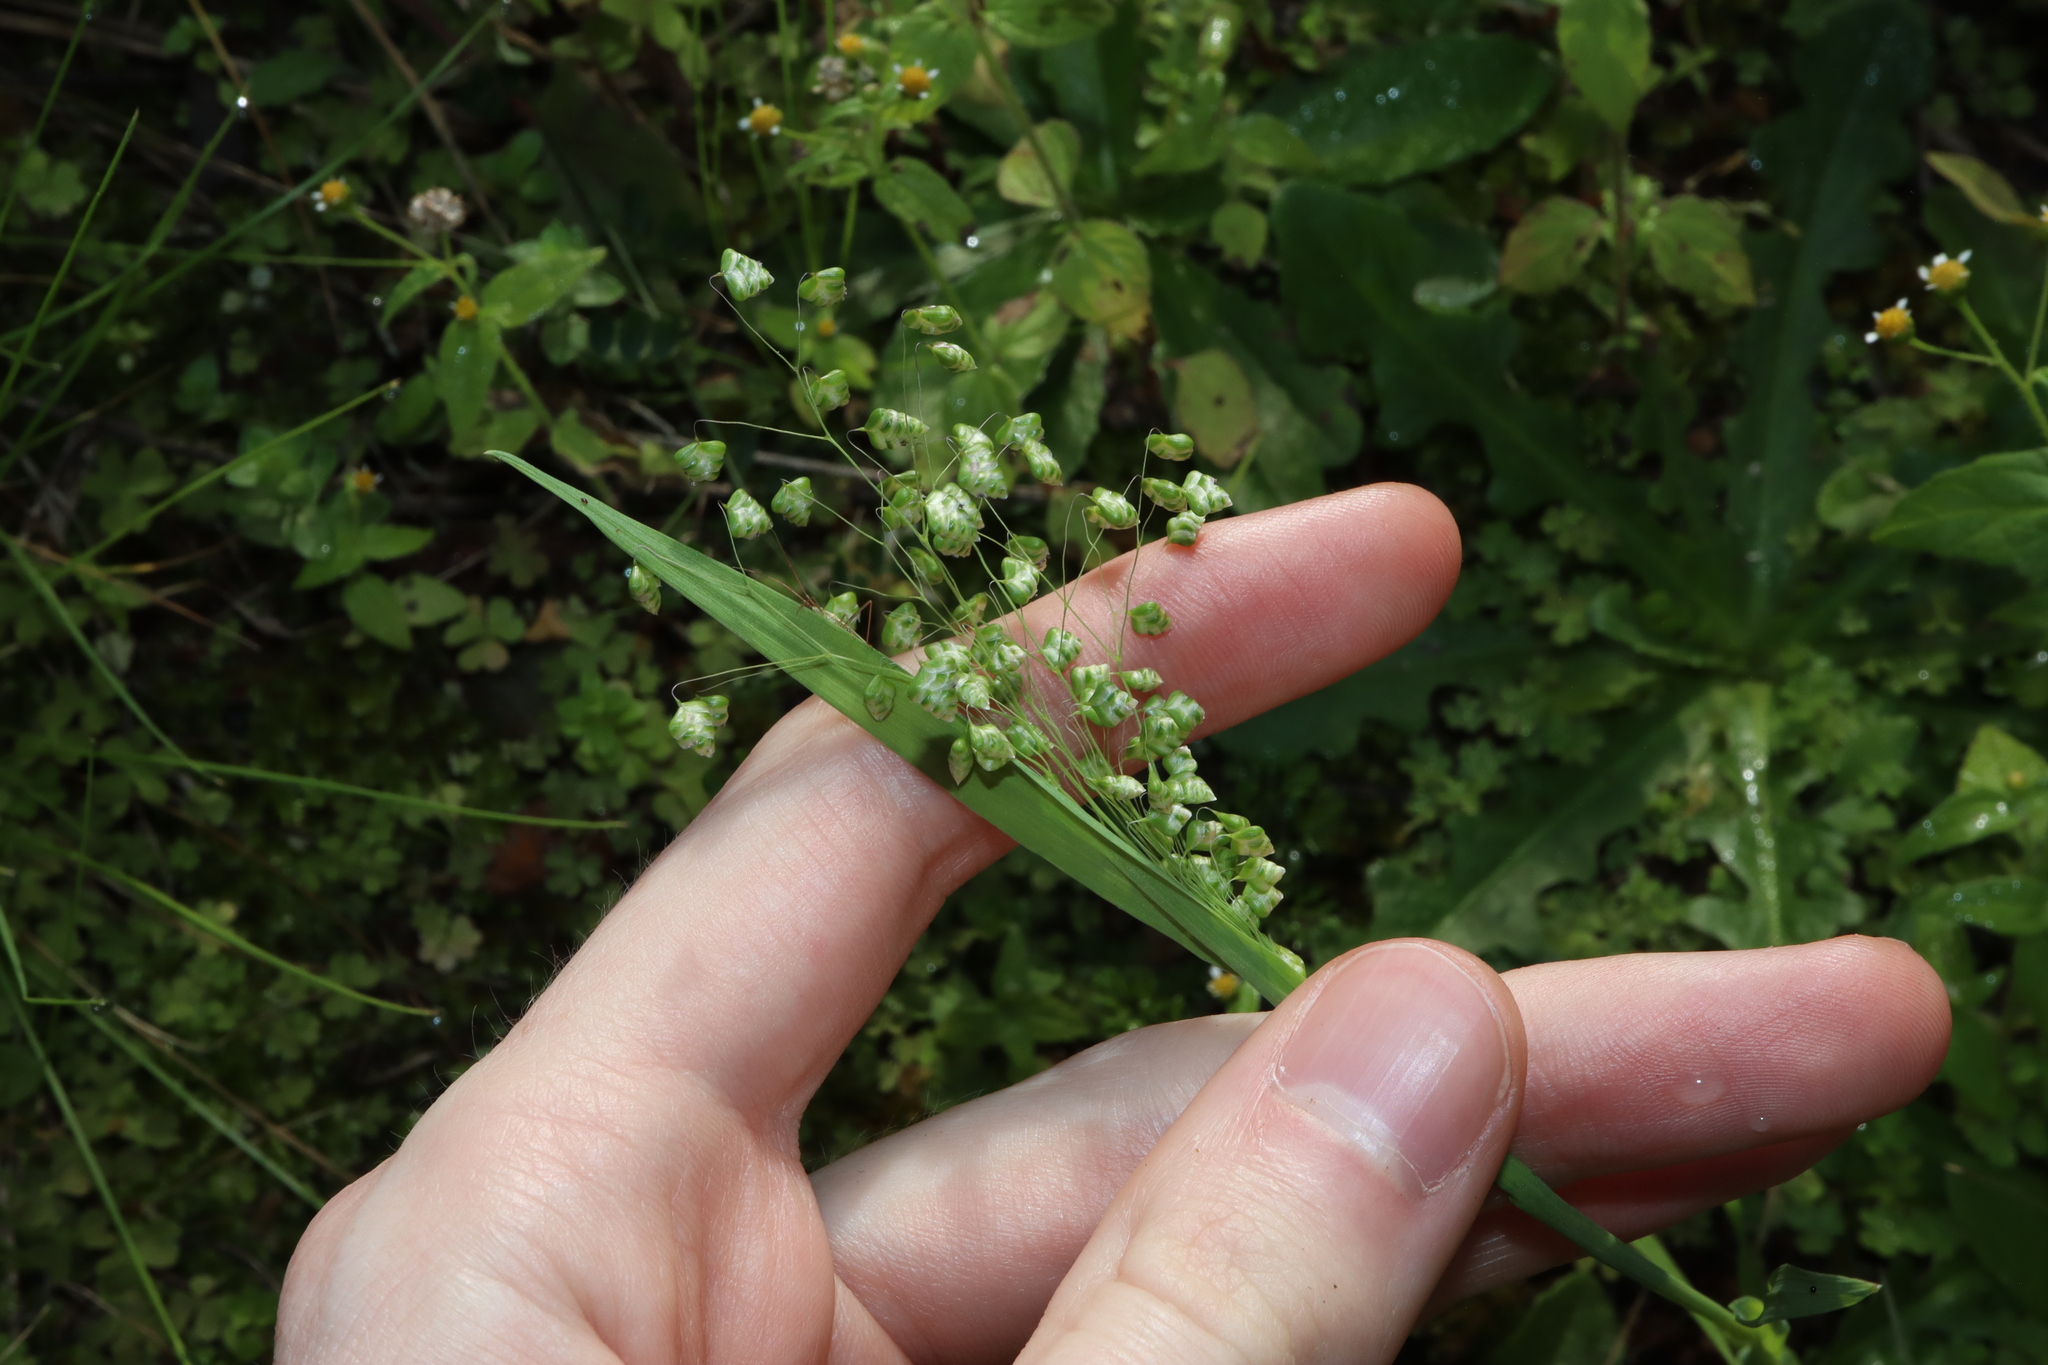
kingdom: Plantae
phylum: Tracheophyta
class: Liliopsida
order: Poales
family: Poaceae
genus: Briza
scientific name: Briza minor
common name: Lesser quaking-grass
